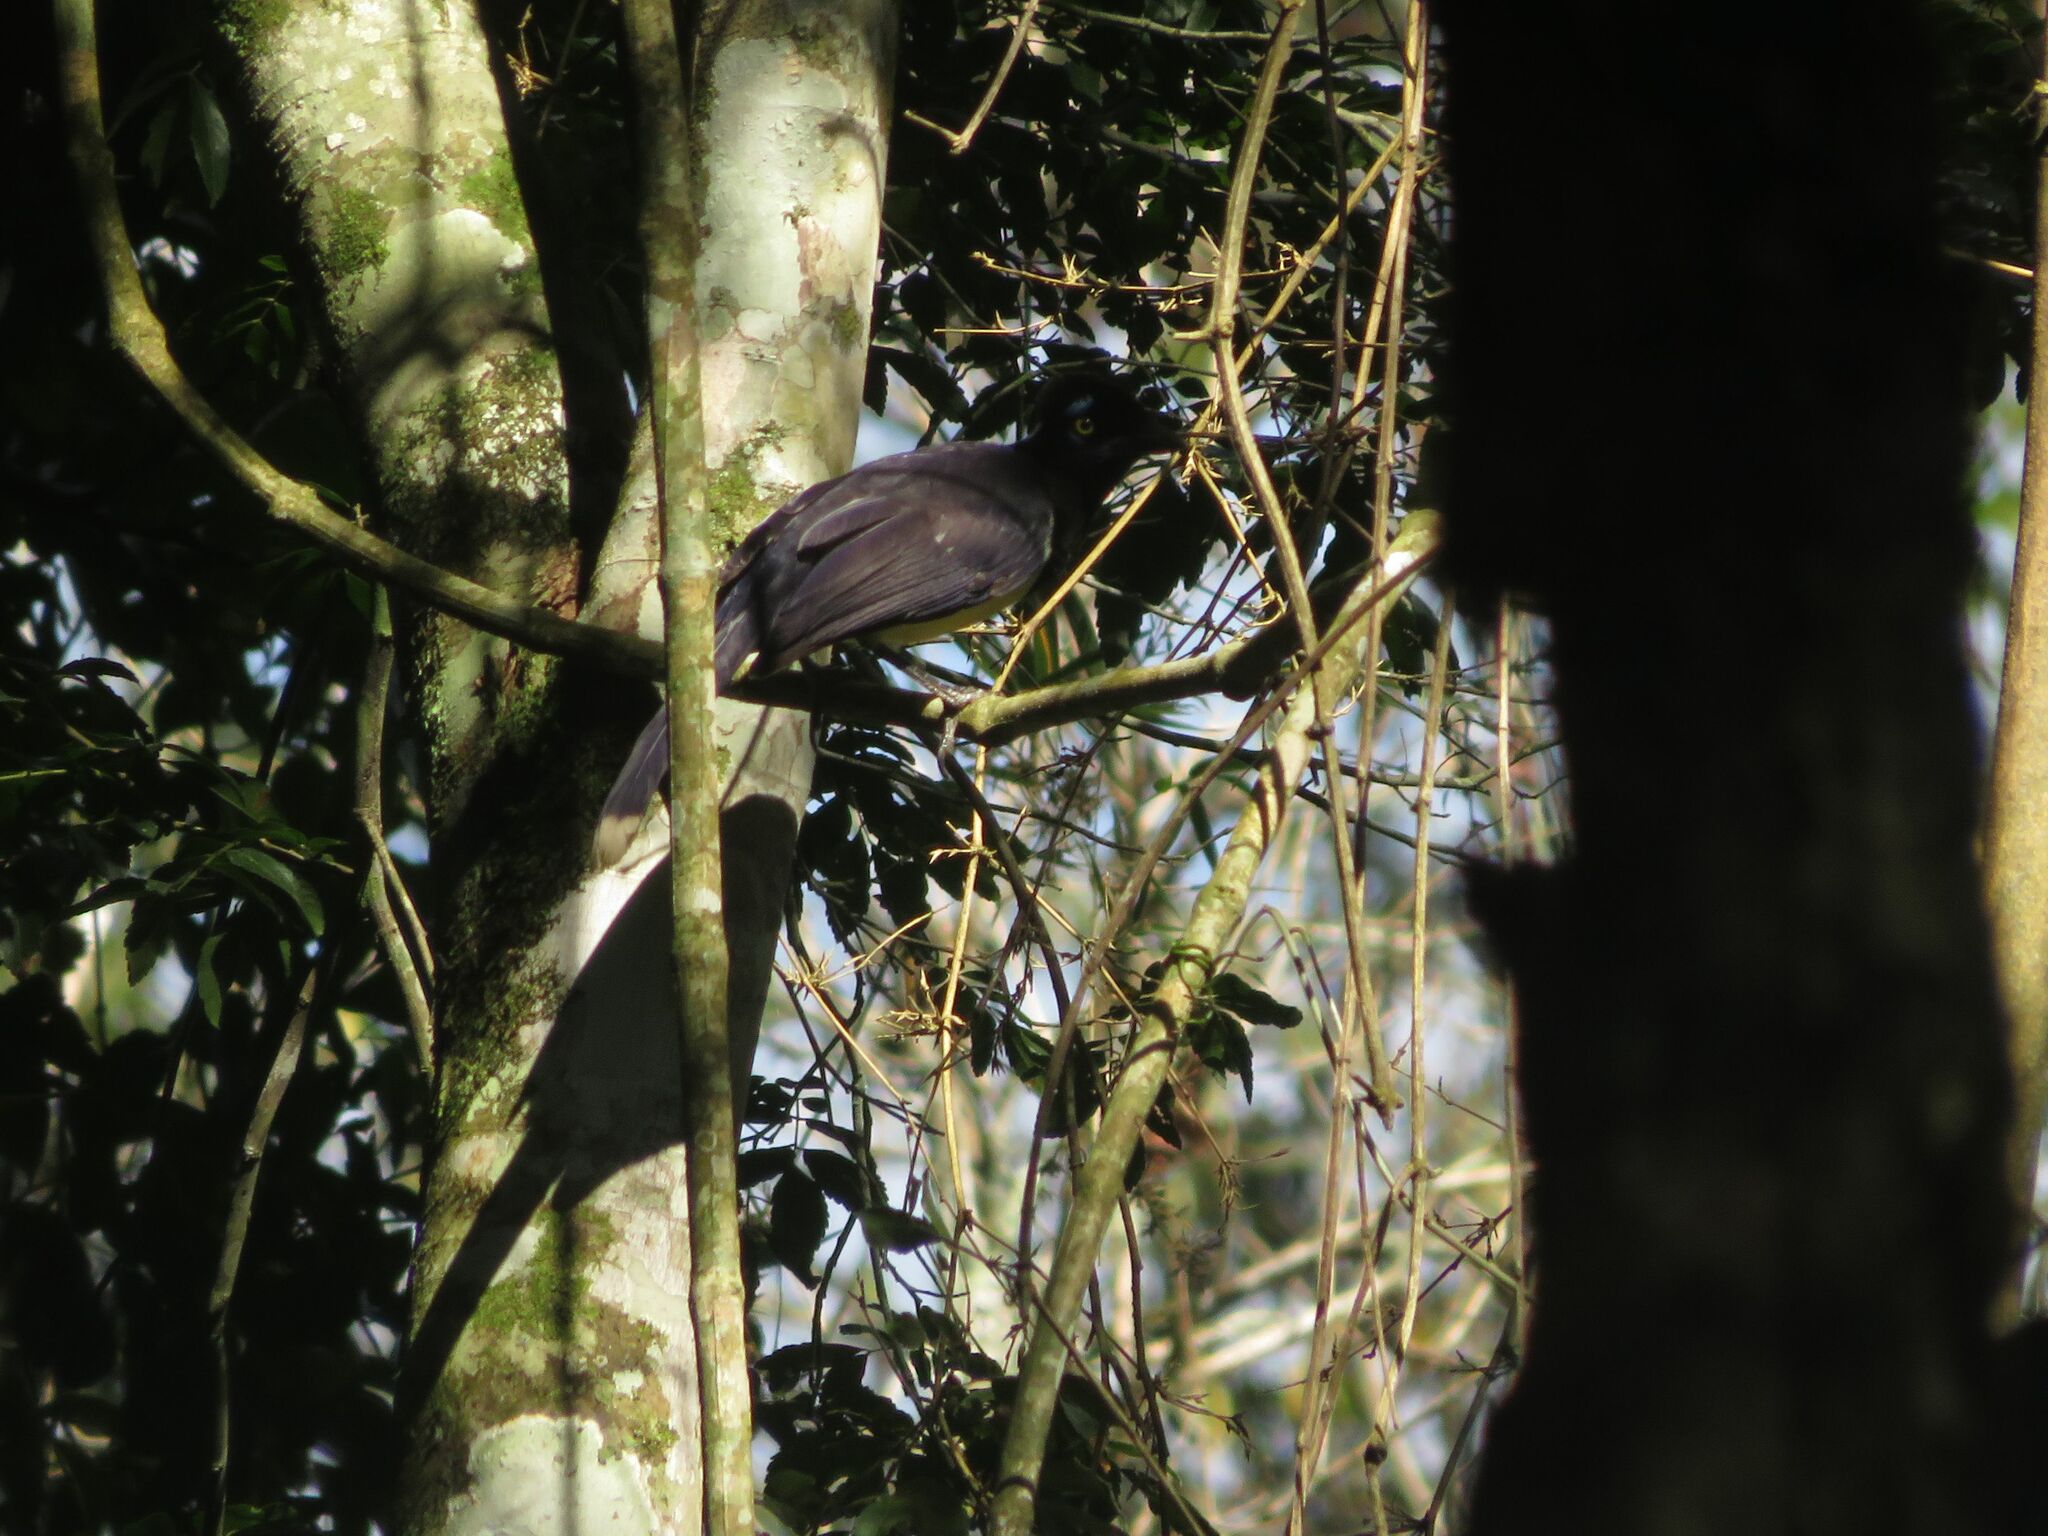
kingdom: Animalia
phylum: Chordata
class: Aves
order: Passeriformes
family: Corvidae
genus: Cyanocorax
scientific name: Cyanocorax chrysops
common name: Plush-crested jay
